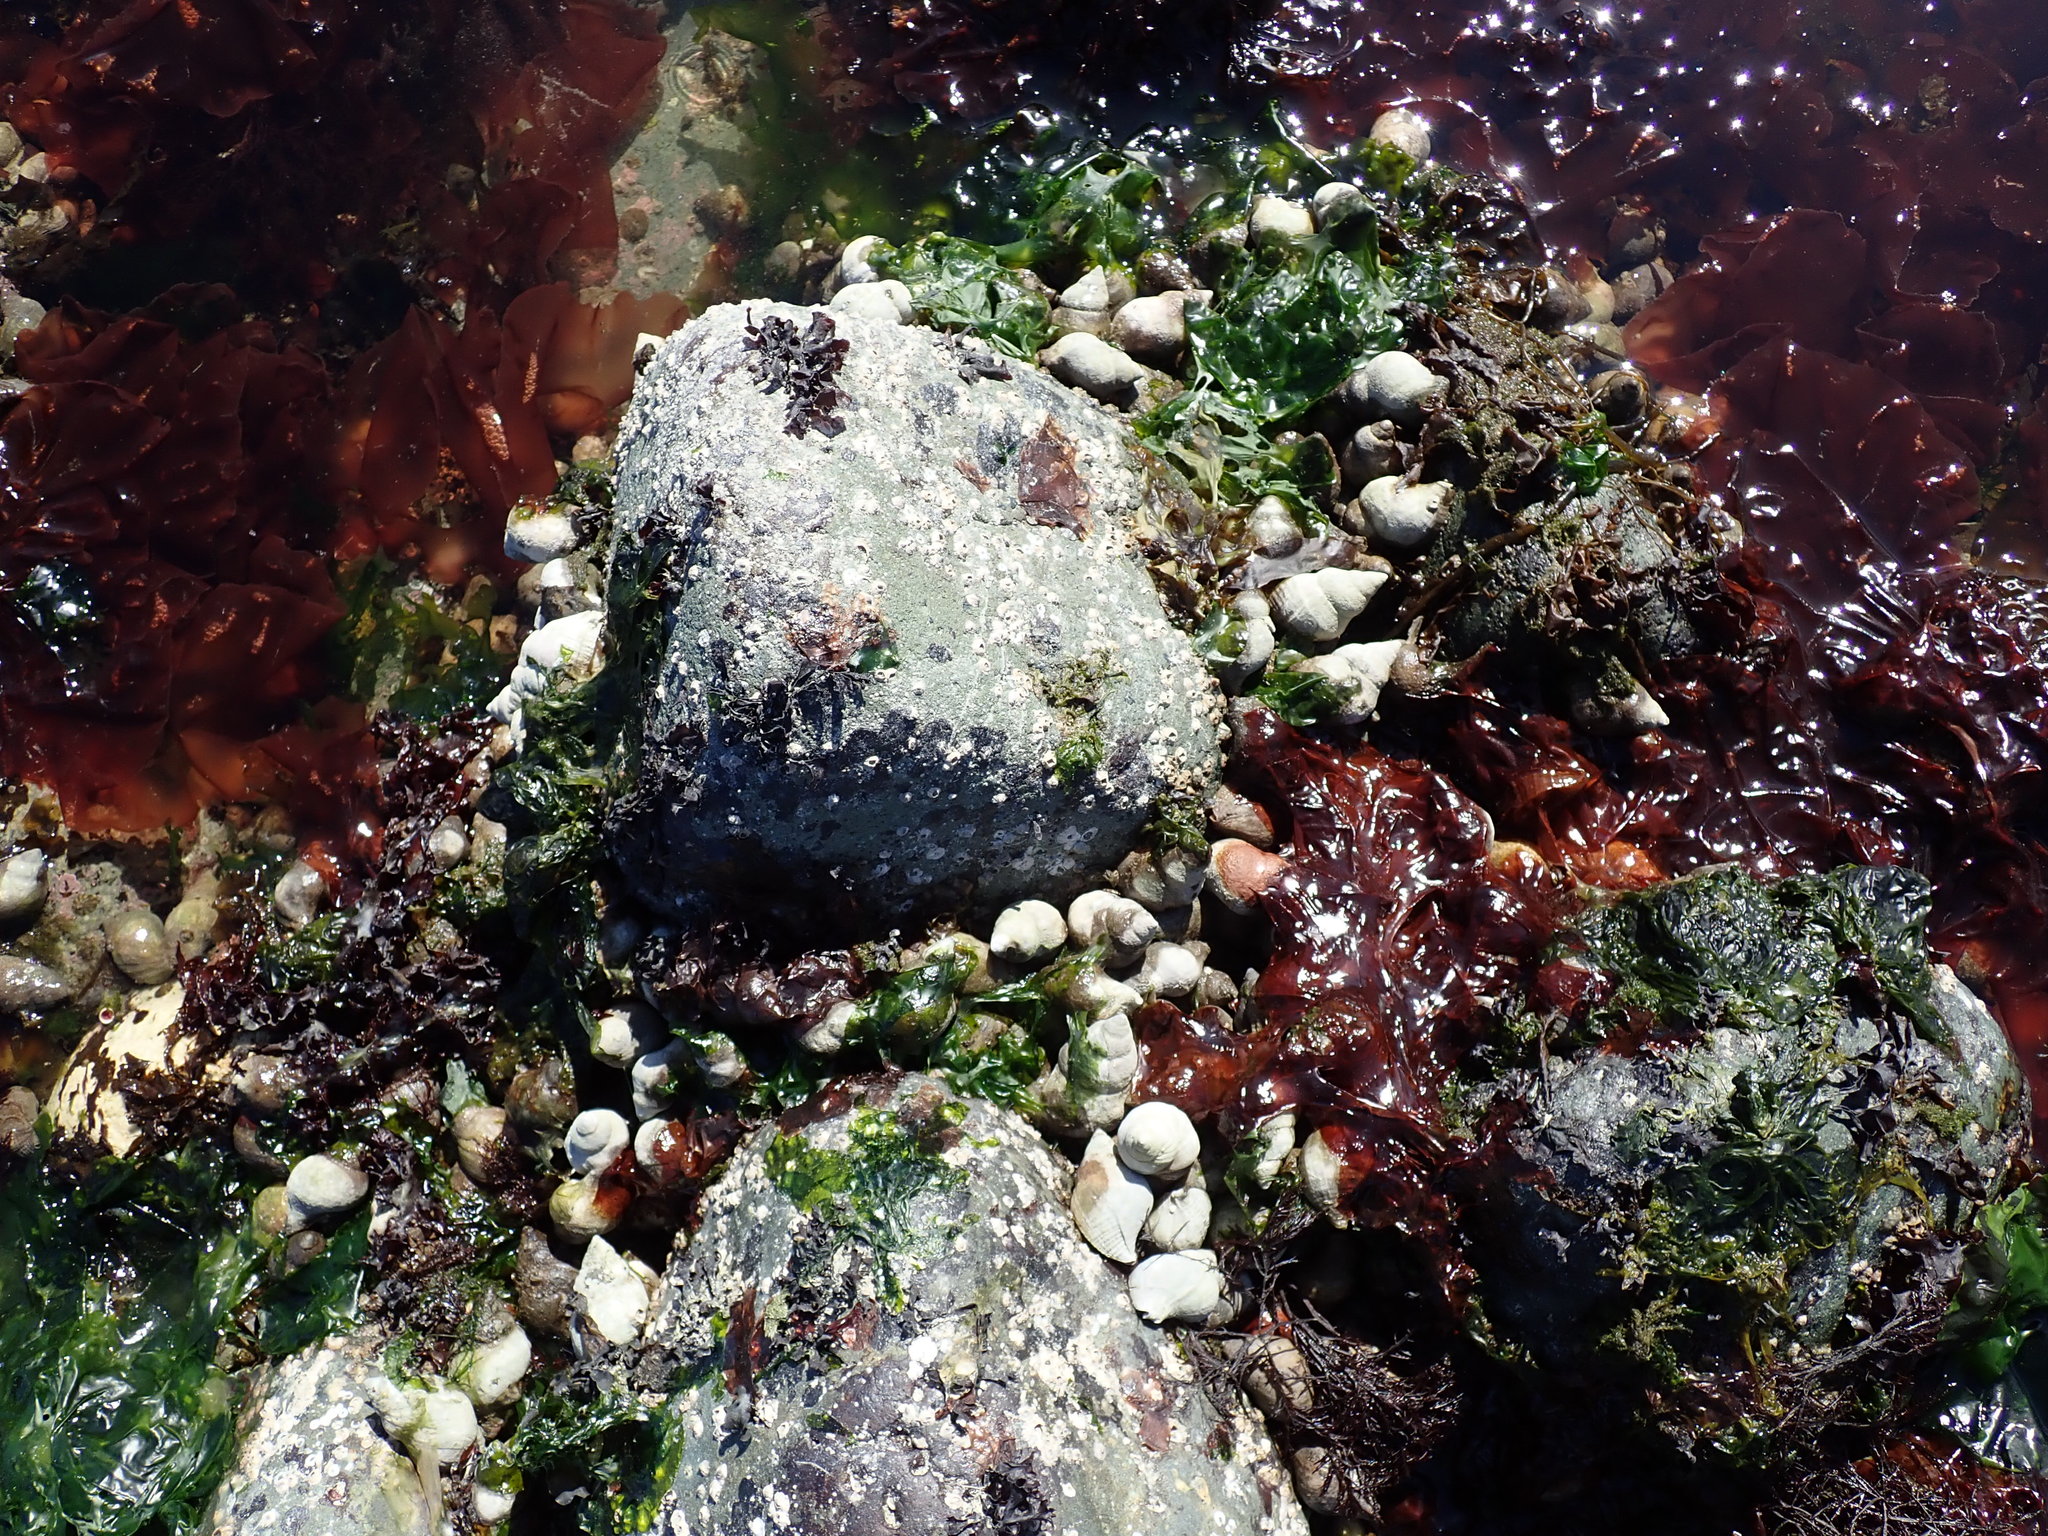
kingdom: Animalia
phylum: Mollusca
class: Gastropoda
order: Neogastropoda
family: Muricidae
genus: Nucella
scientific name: Nucella lamellosa
